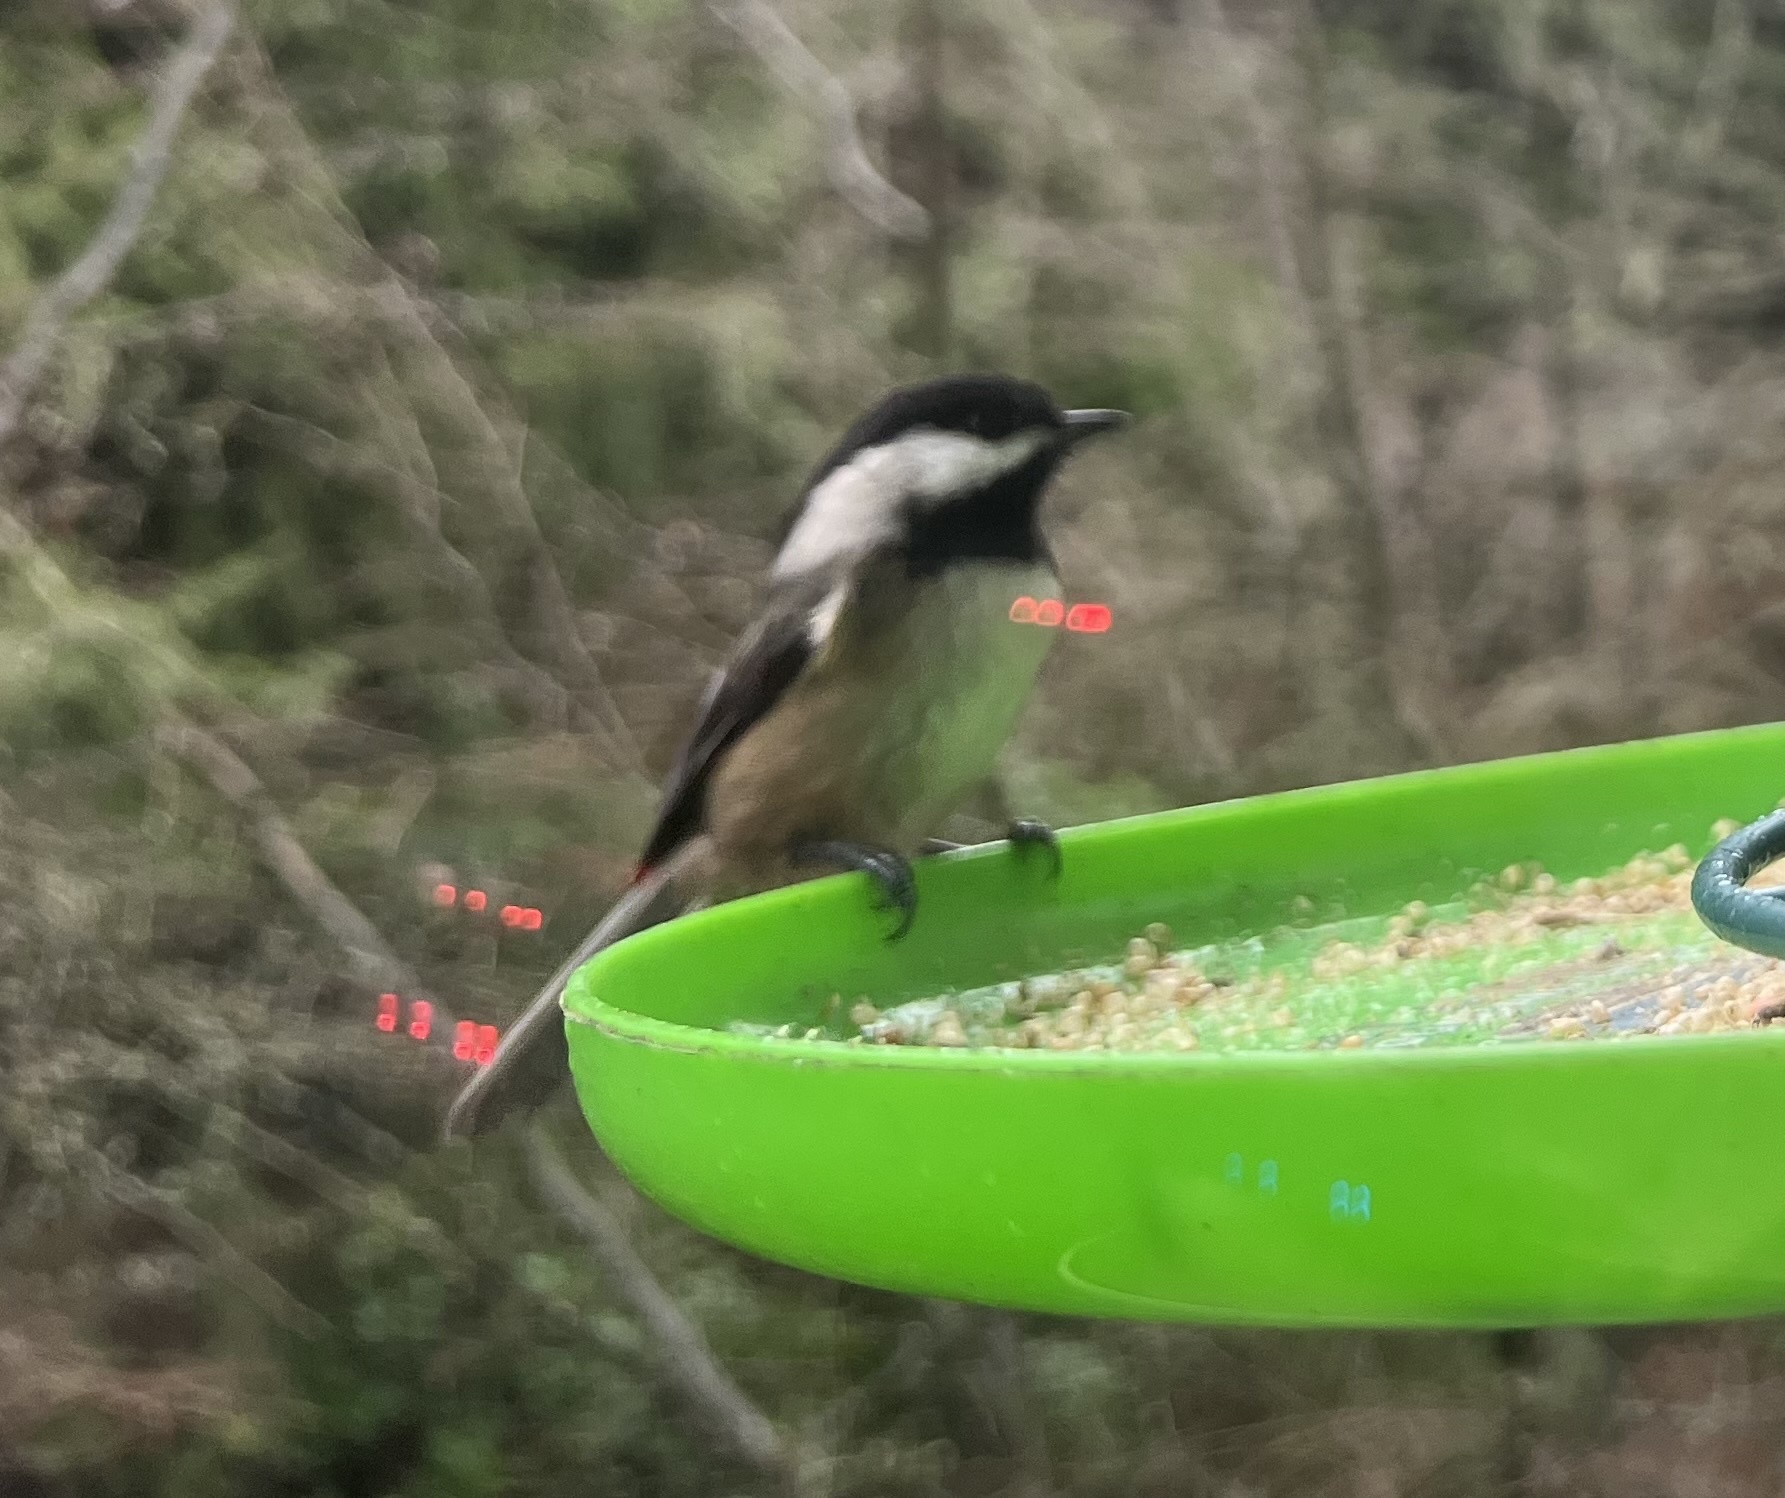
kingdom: Animalia
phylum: Chordata
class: Aves
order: Passeriformes
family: Paridae
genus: Poecile
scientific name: Poecile atricapillus
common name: Black-capped chickadee
